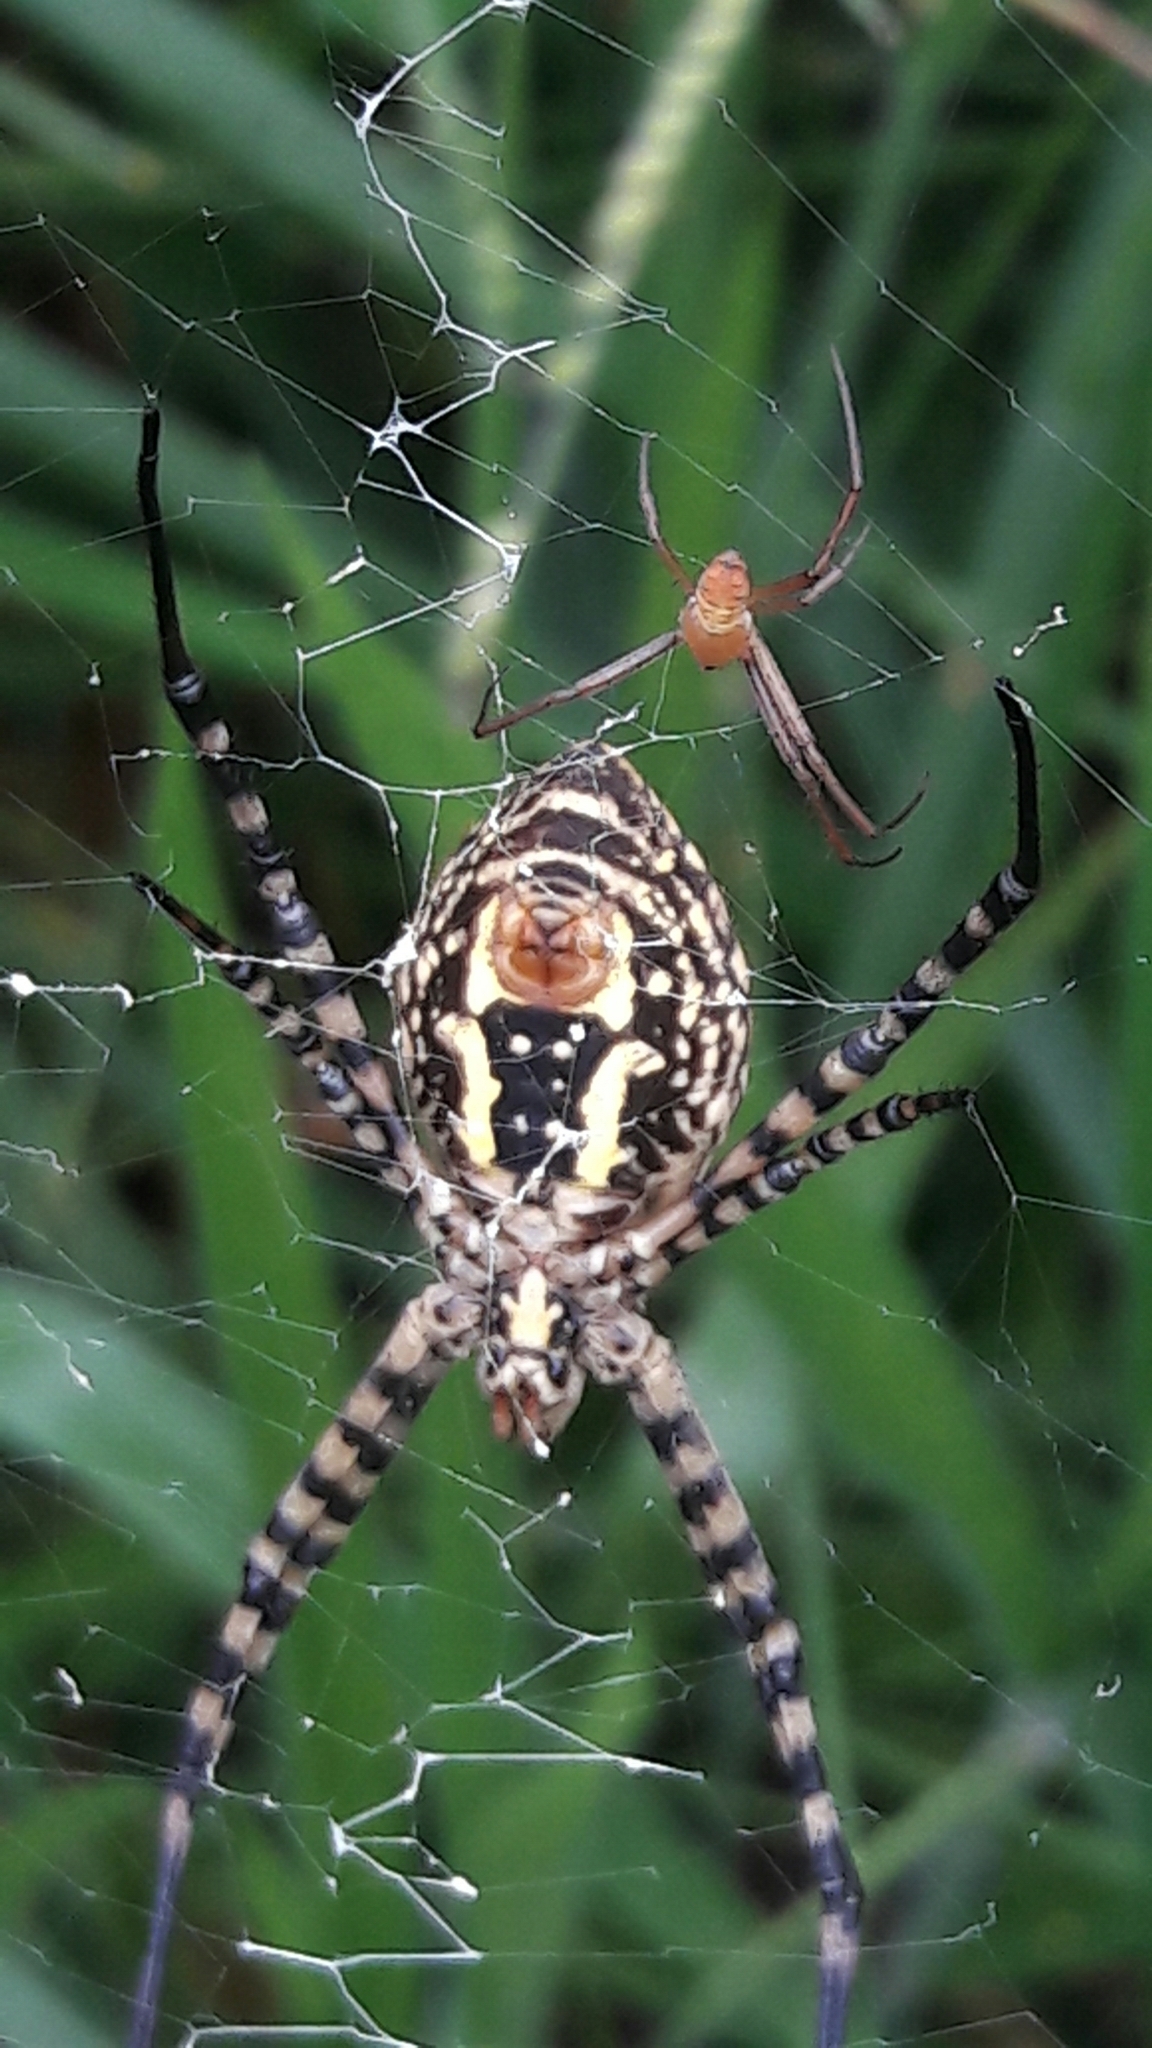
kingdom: Animalia
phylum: Arthropoda
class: Arachnida
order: Araneae
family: Araneidae
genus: Argiope
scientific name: Argiope trifasciata
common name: Banded garden spider
